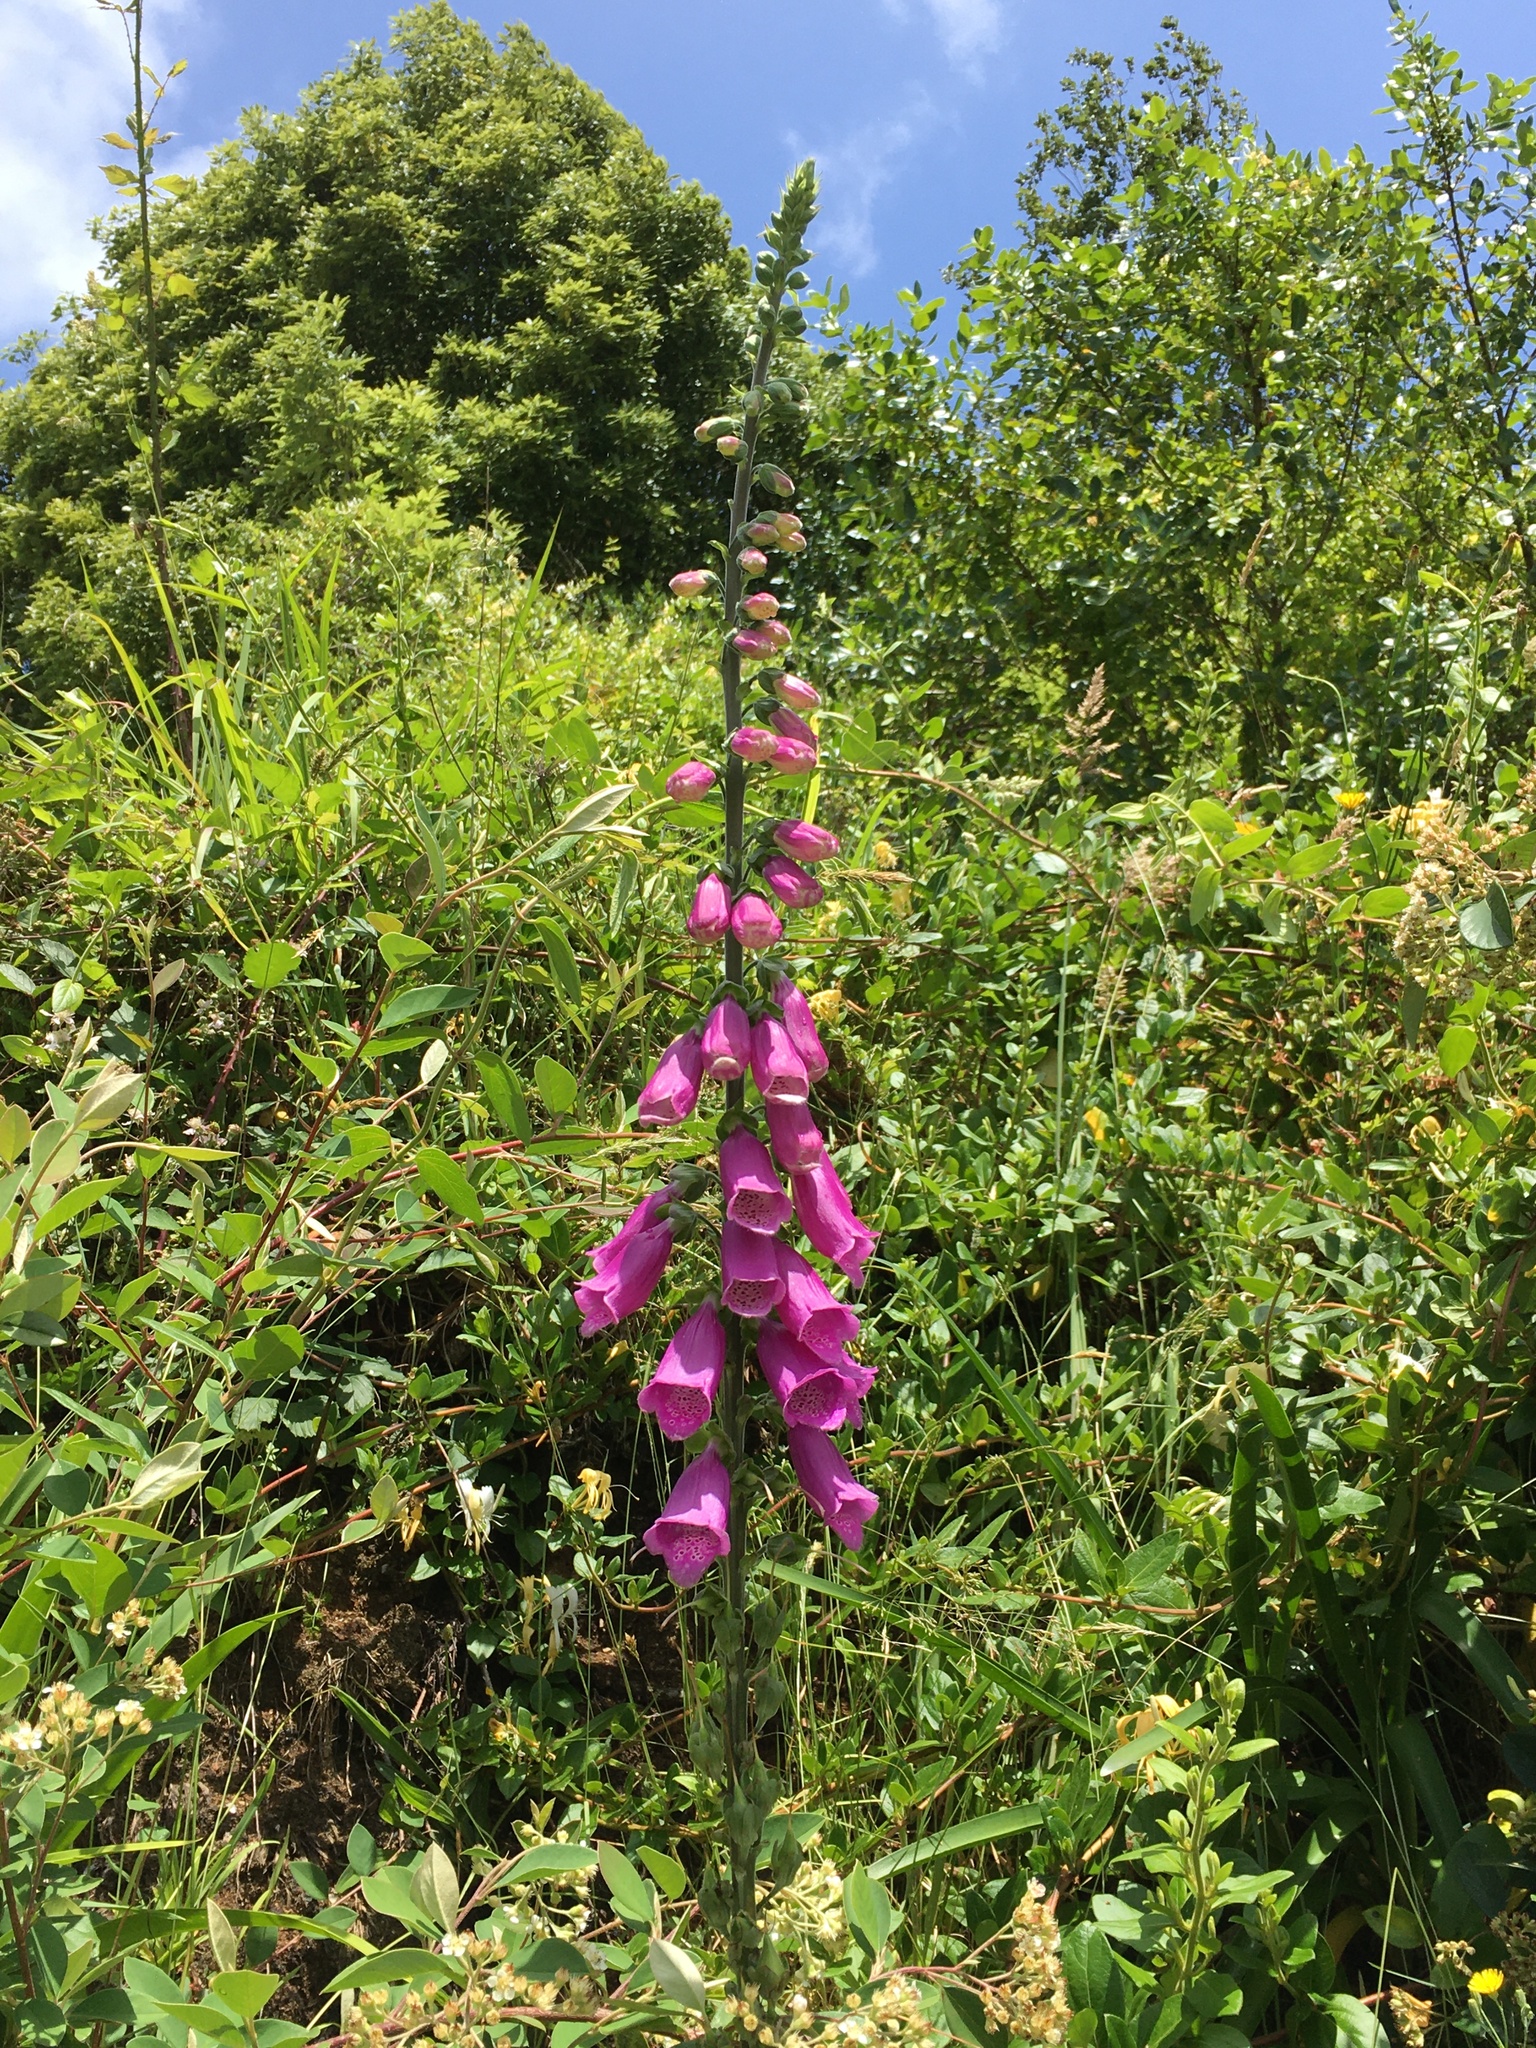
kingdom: Plantae
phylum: Tracheophyta
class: Magnoliopsida
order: Lamiales
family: Plantaginaceae
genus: Digitalis
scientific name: Digitalis purpurea
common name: Foxglove
